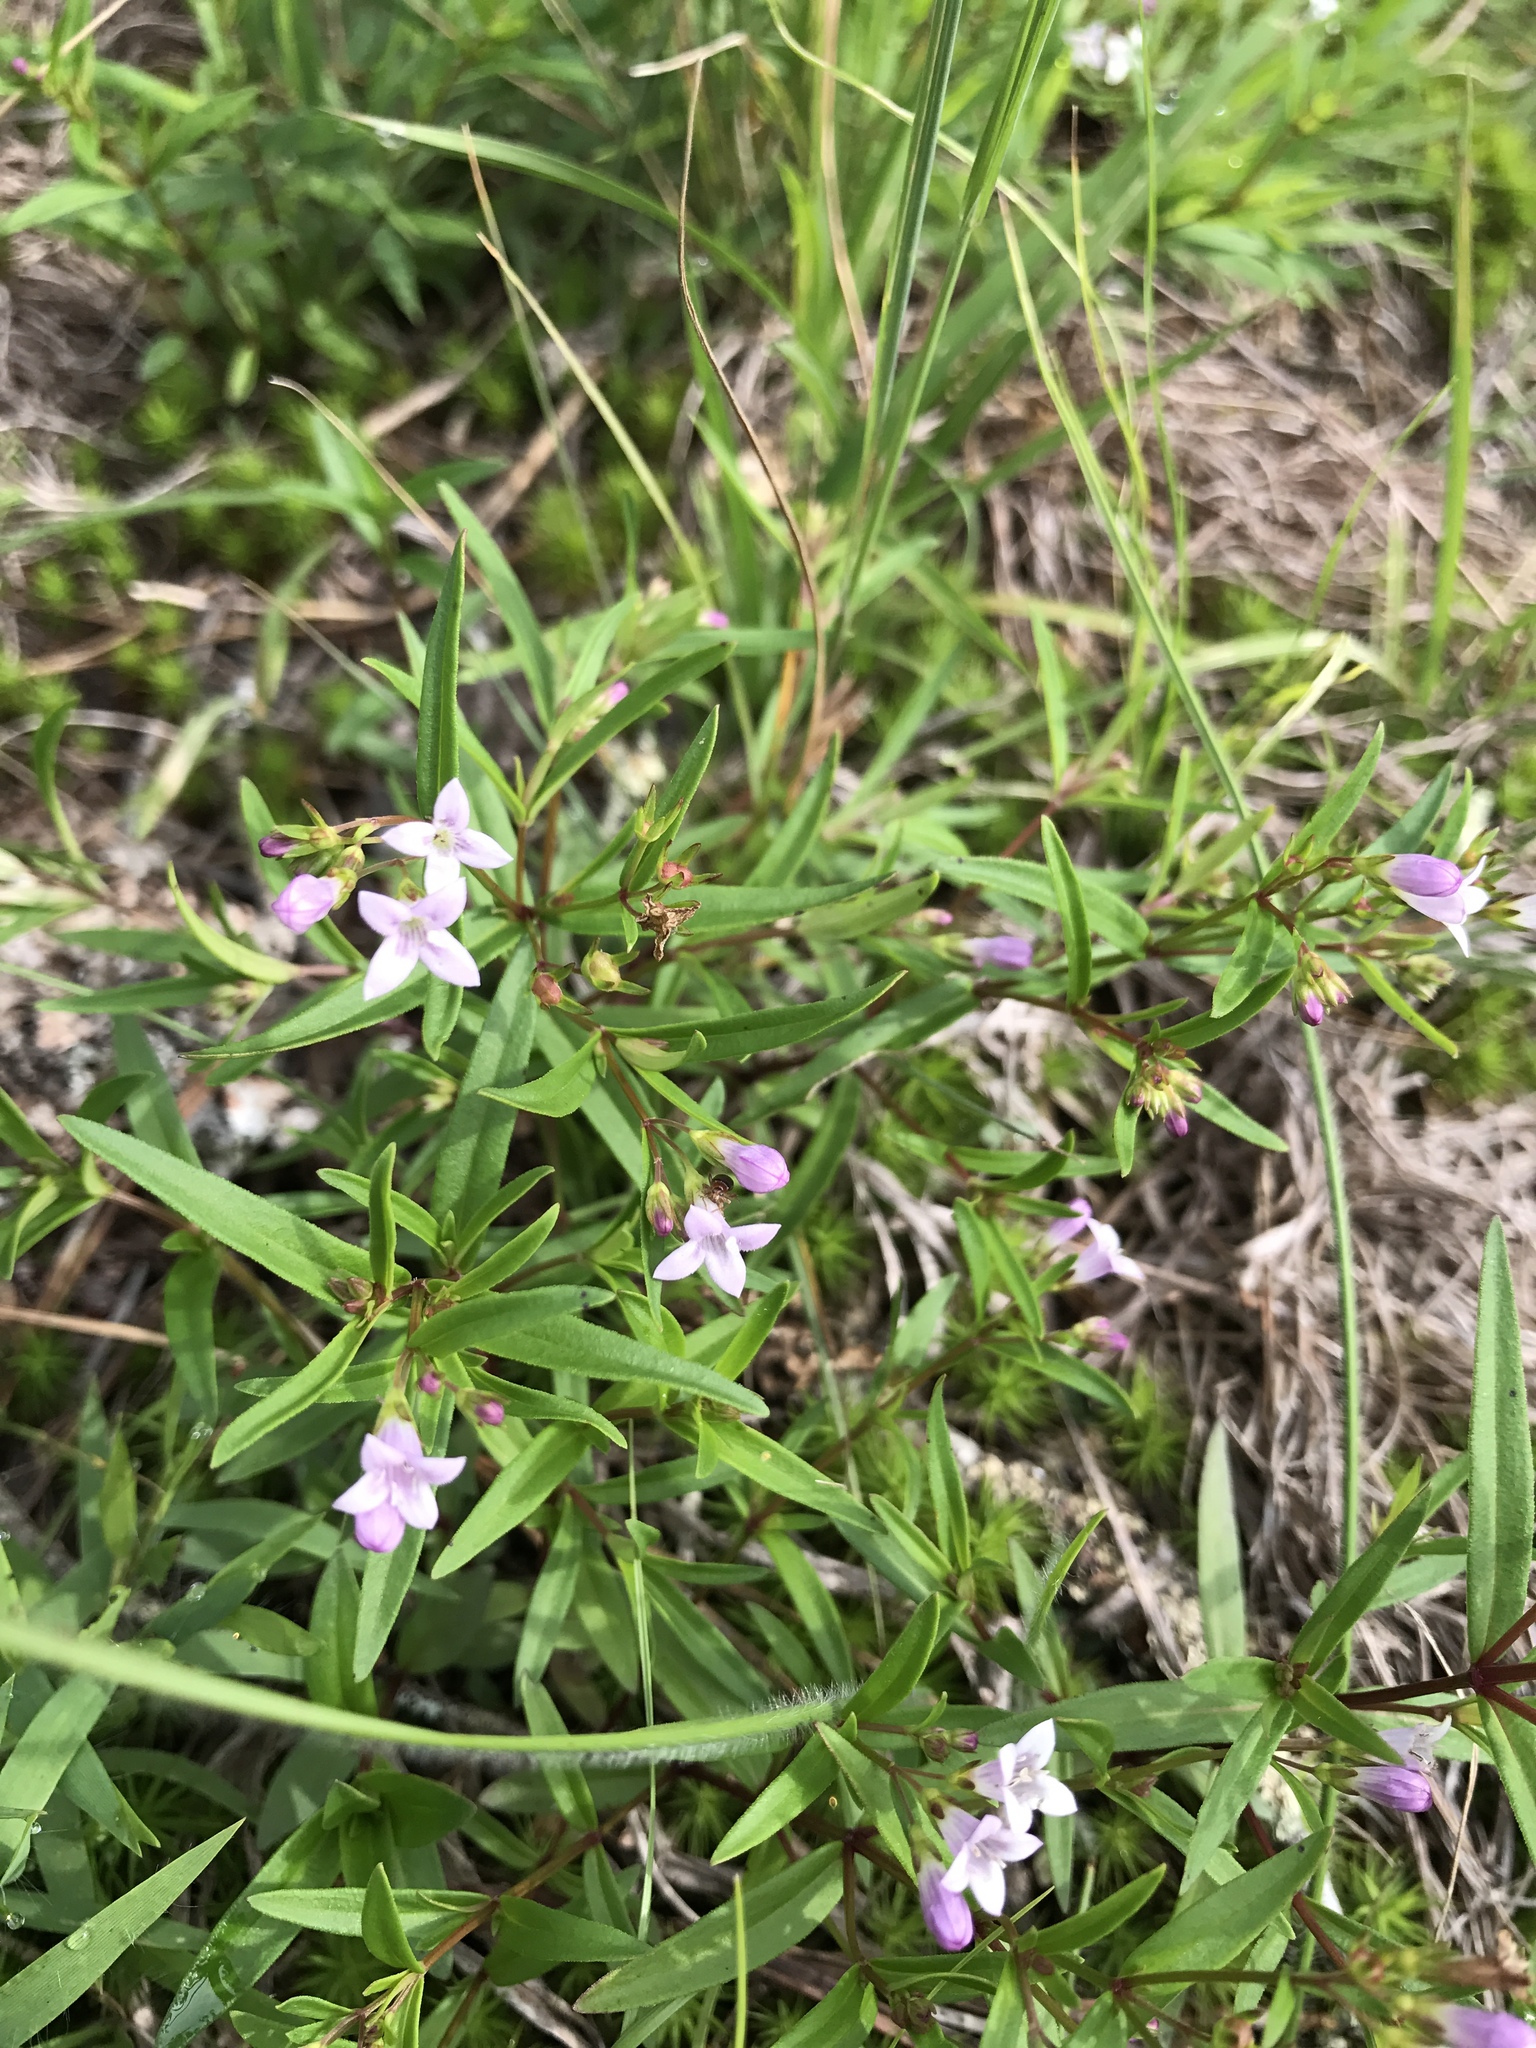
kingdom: Plantae
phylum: Tracheophyta
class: Magnoliopsida
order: Gentianales
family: Rubiaceae
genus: Houstonia
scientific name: Houstonia longifolia
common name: Long-leaved bluets
